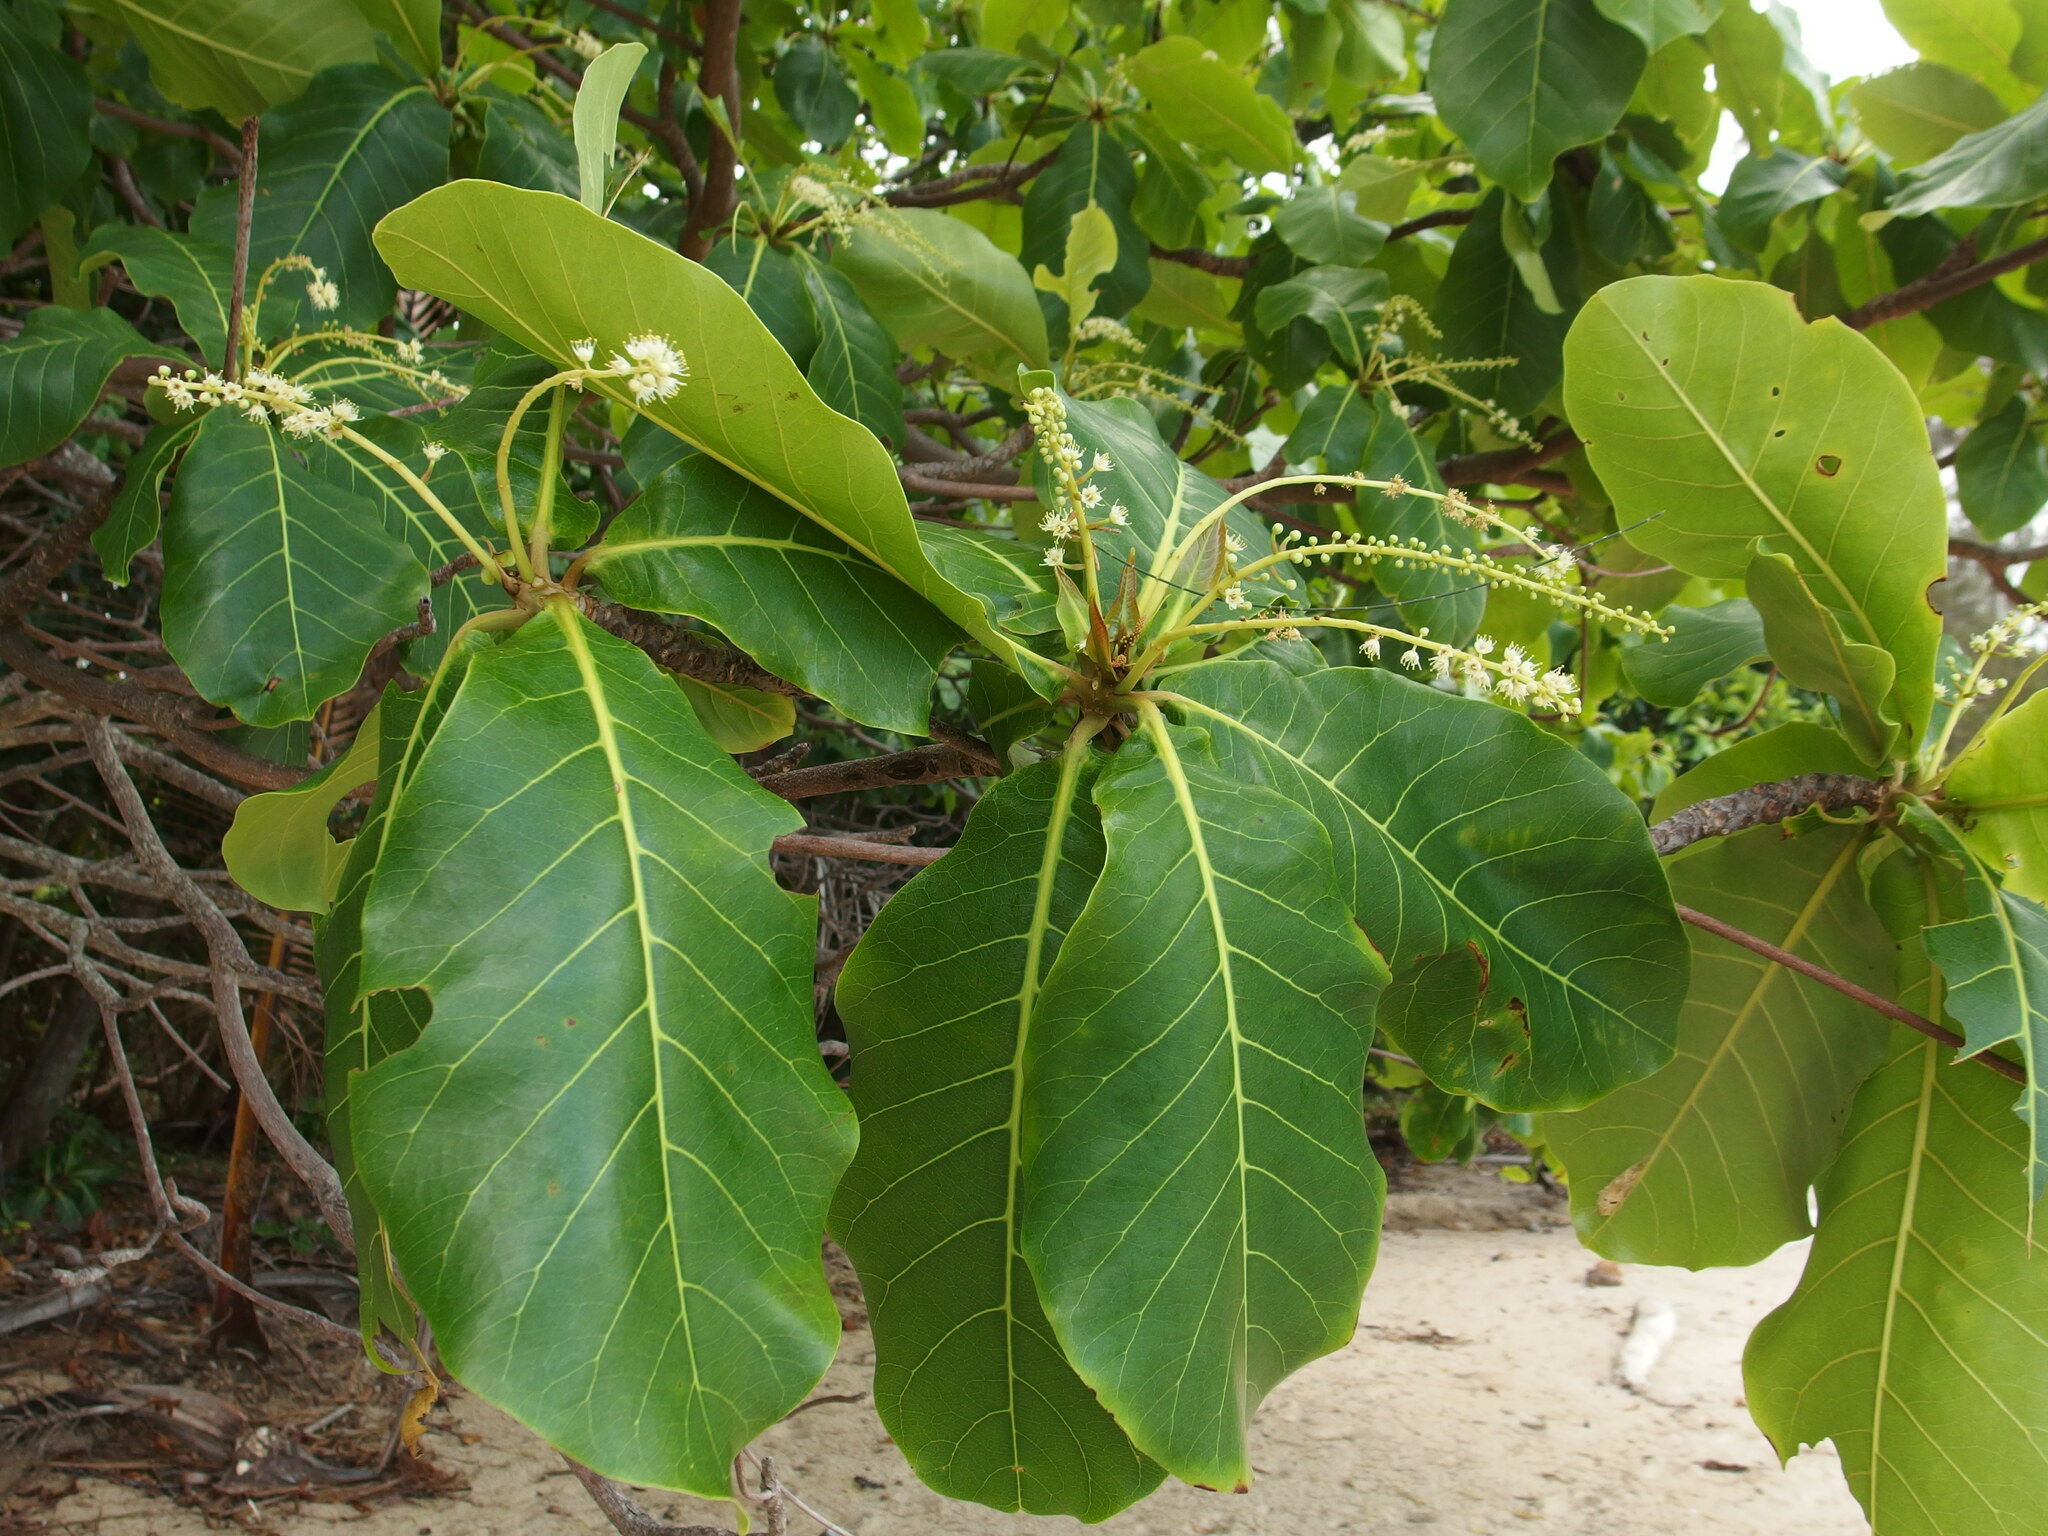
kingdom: Plantae
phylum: Tracheophyta
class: Magnoliopsida
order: Myrtales
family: Combretaceae
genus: Terminalia
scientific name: Terminalia catappa
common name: Tropical almond
